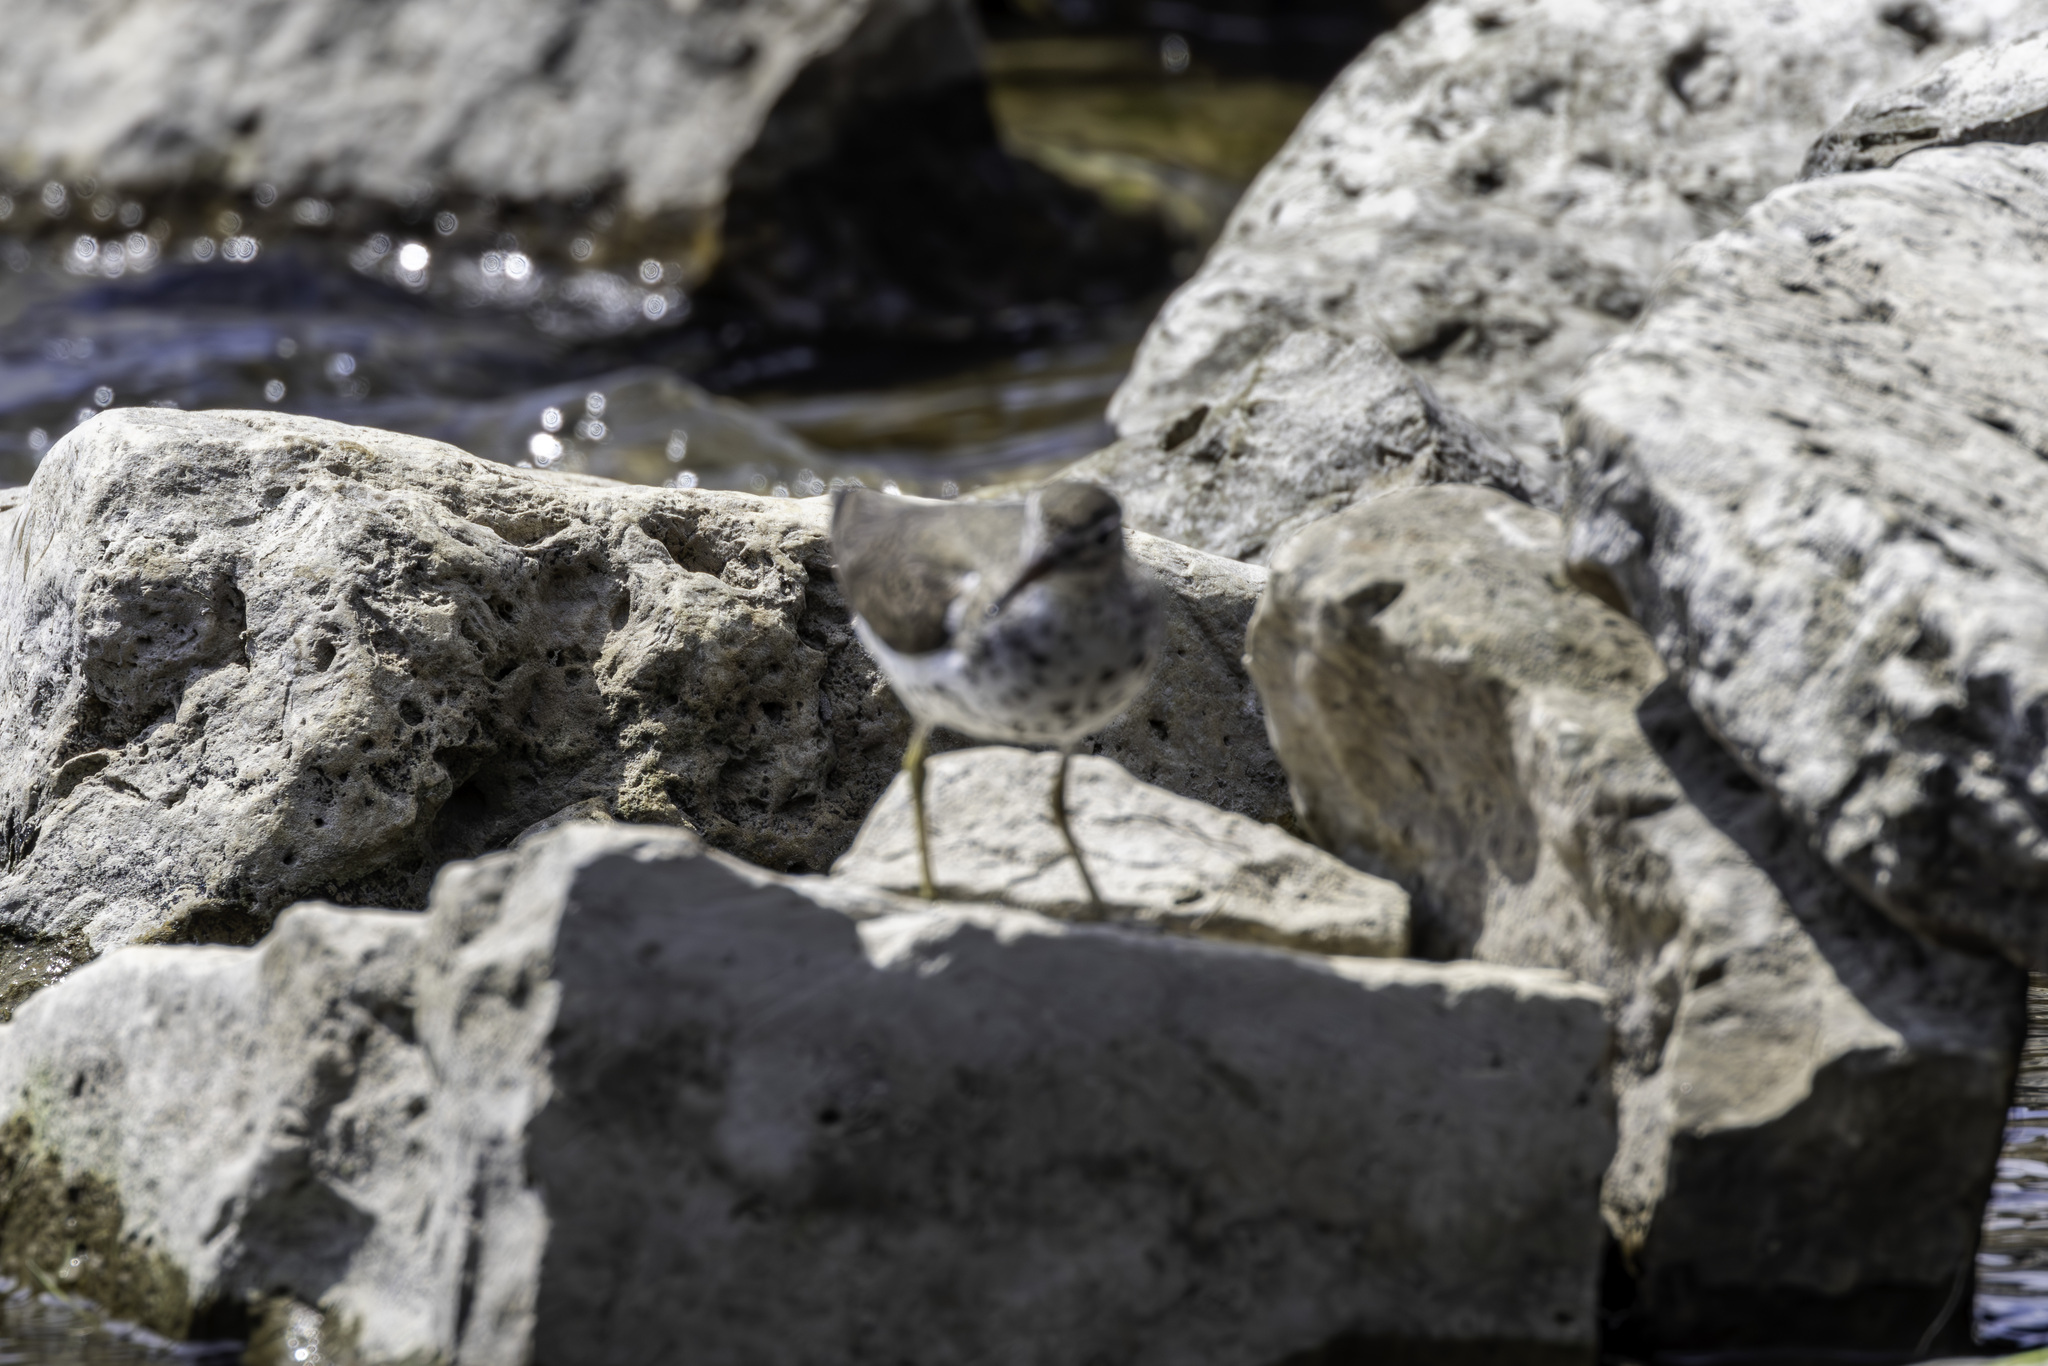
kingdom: Animalia
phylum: Chordata
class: Aves
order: Charadriiformes
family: Scolopacidae
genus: Actitis
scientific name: Actitis macularius
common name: Spotted sandpiper
